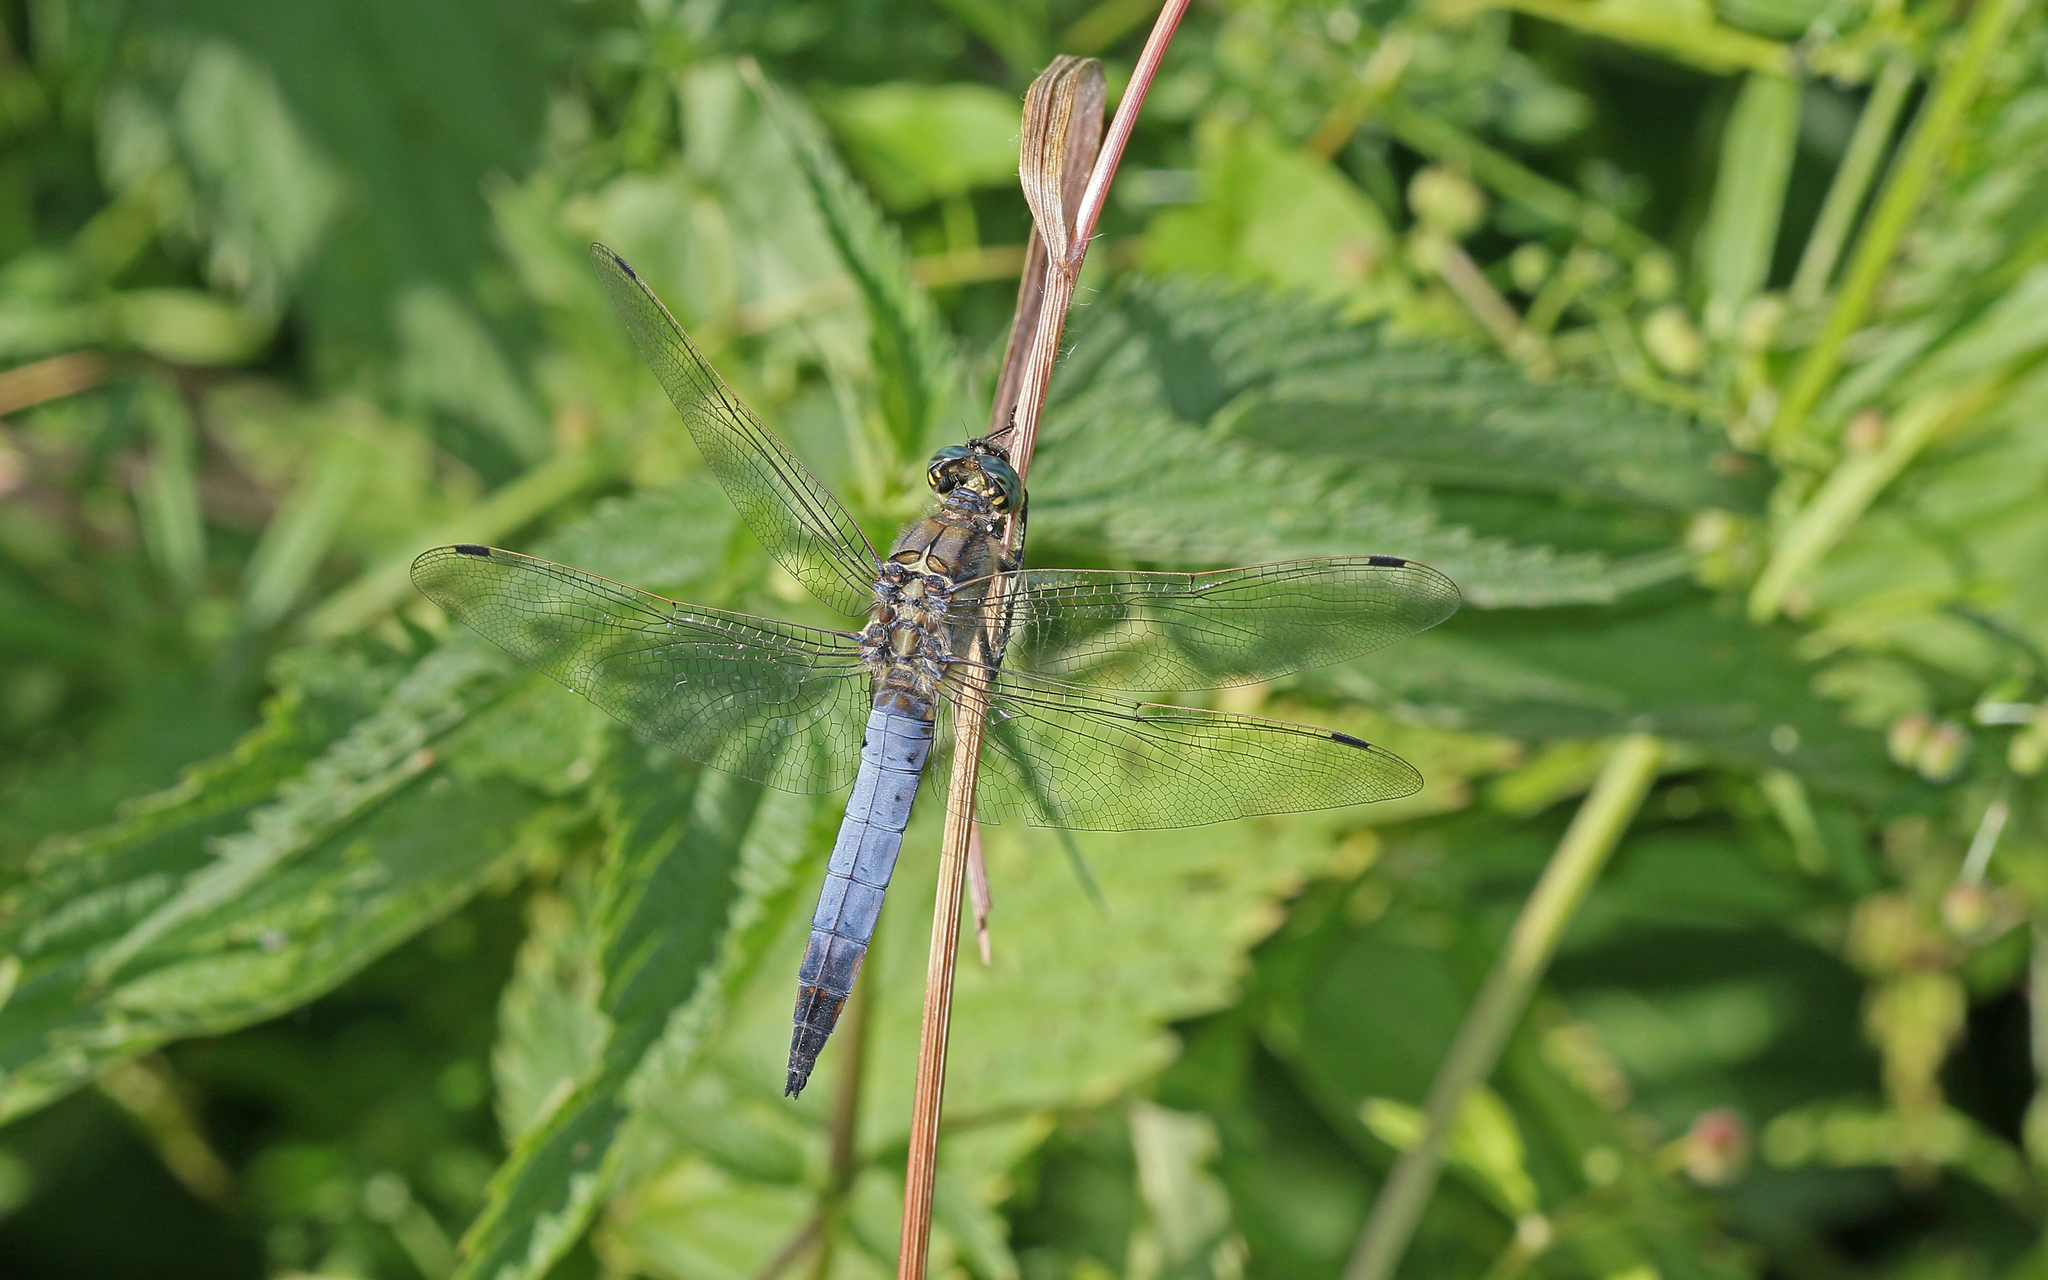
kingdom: Animalia
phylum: Arthropoda
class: Insecta
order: Odonata
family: Libellulidae
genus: Orthetrum
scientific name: Orthetrum cancellatum
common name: Black-tailed skimmer
